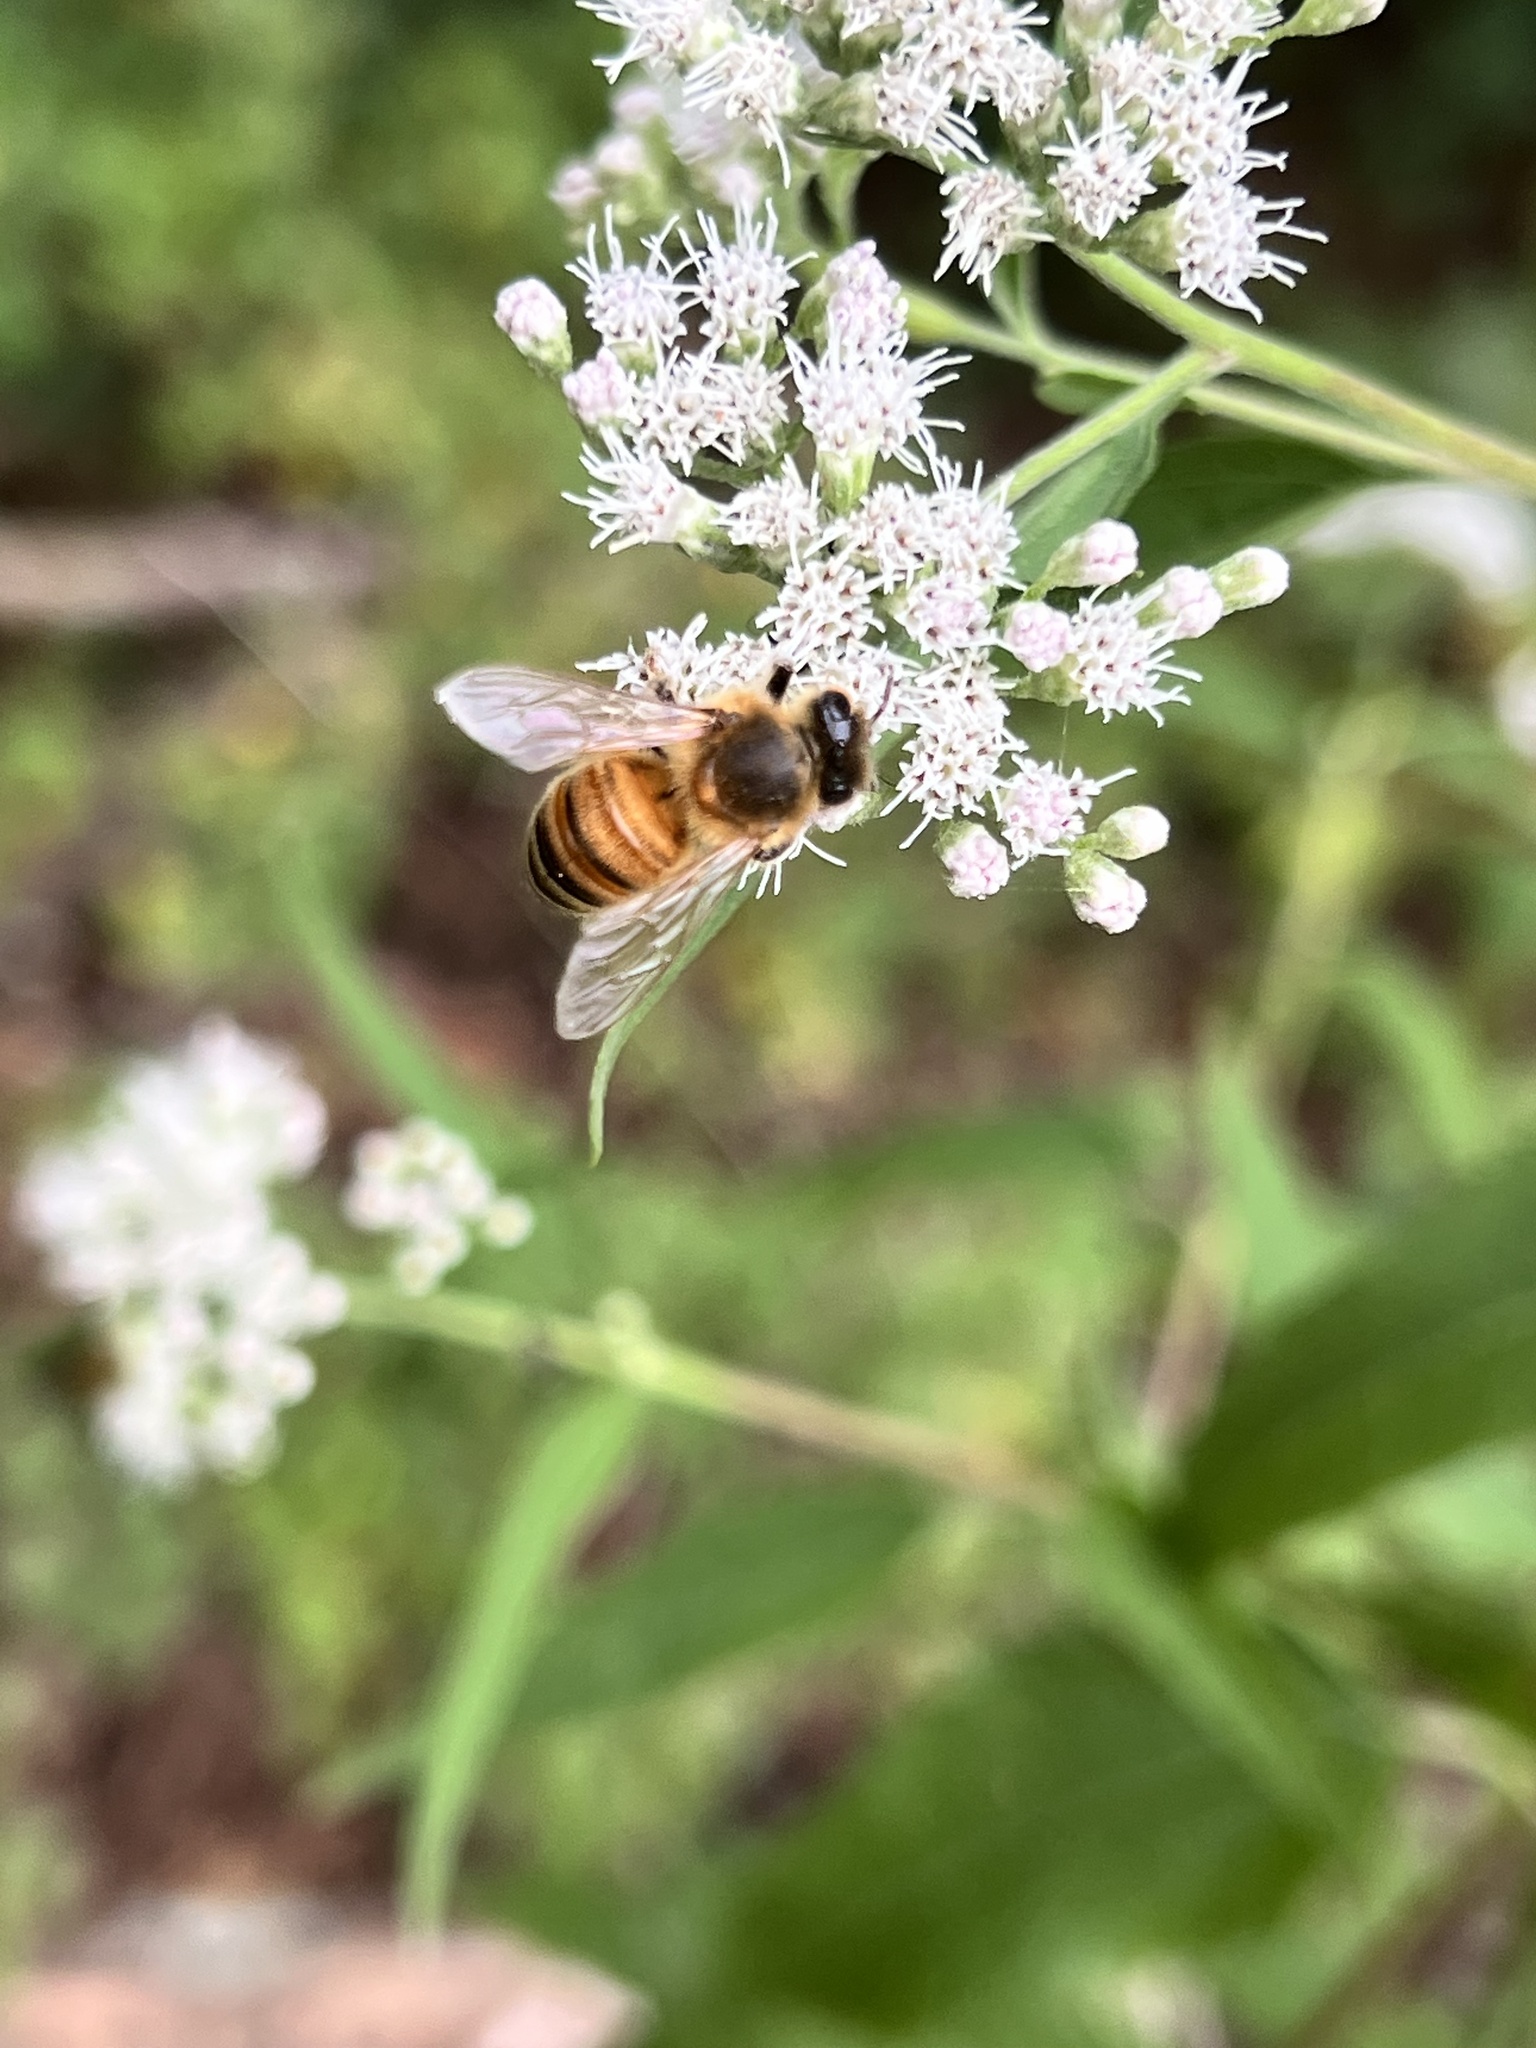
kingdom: Animalia
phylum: Arthropoda
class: Insecta
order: Hymenoptera
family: Apidae
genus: Apis
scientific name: Apis mellifera
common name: Honey bee
